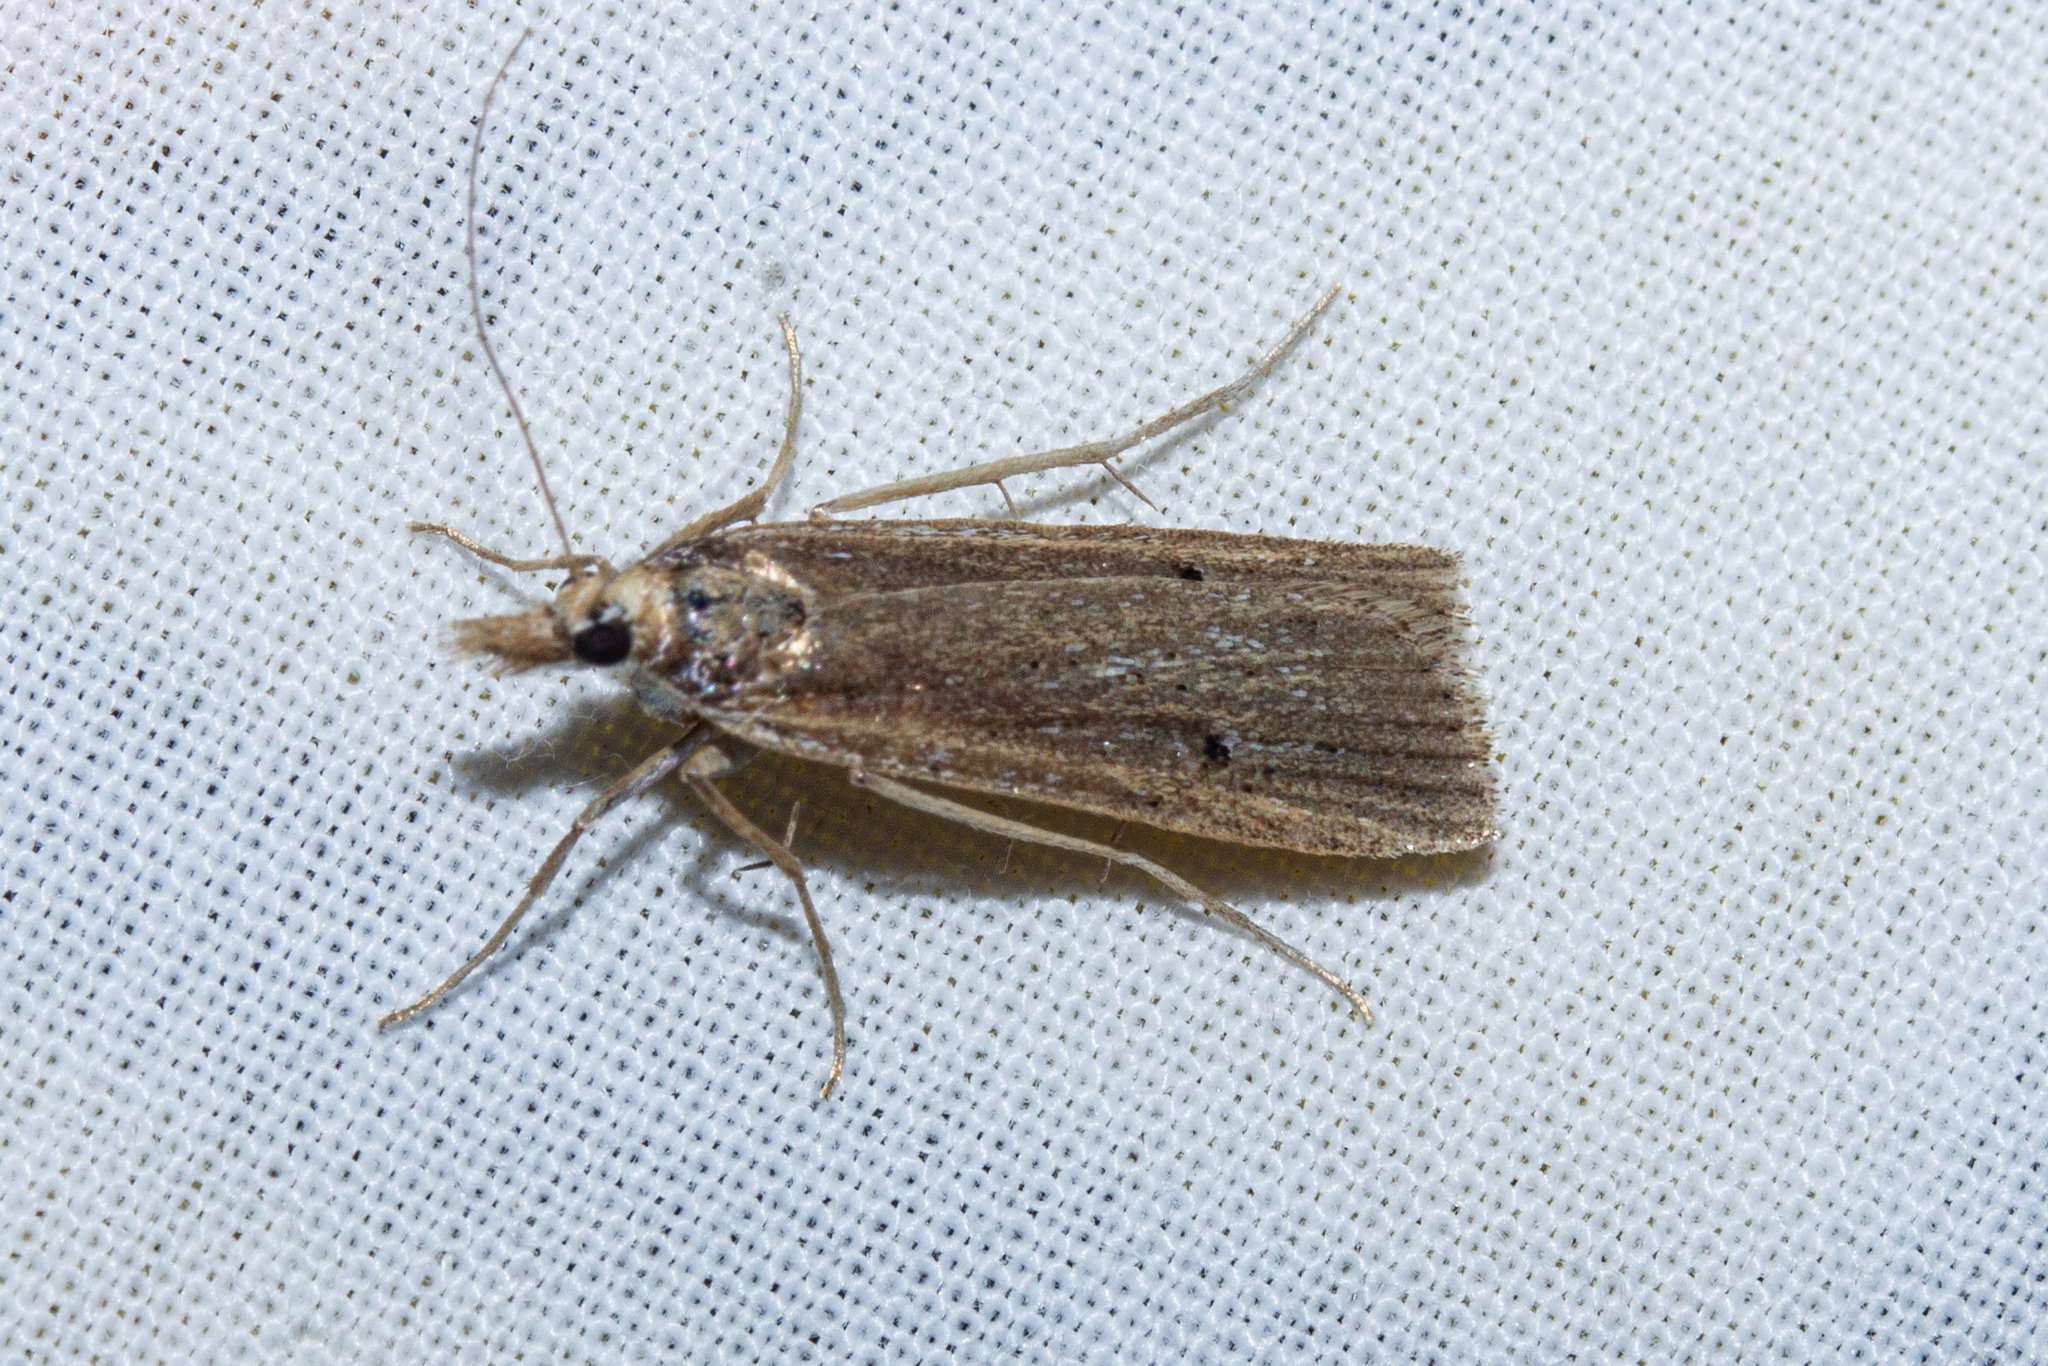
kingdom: Animalia
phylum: Arthropoda
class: Insecta
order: Lepidoptera
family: Crambidae
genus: Eudonia
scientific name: Eudonia sabulosella
